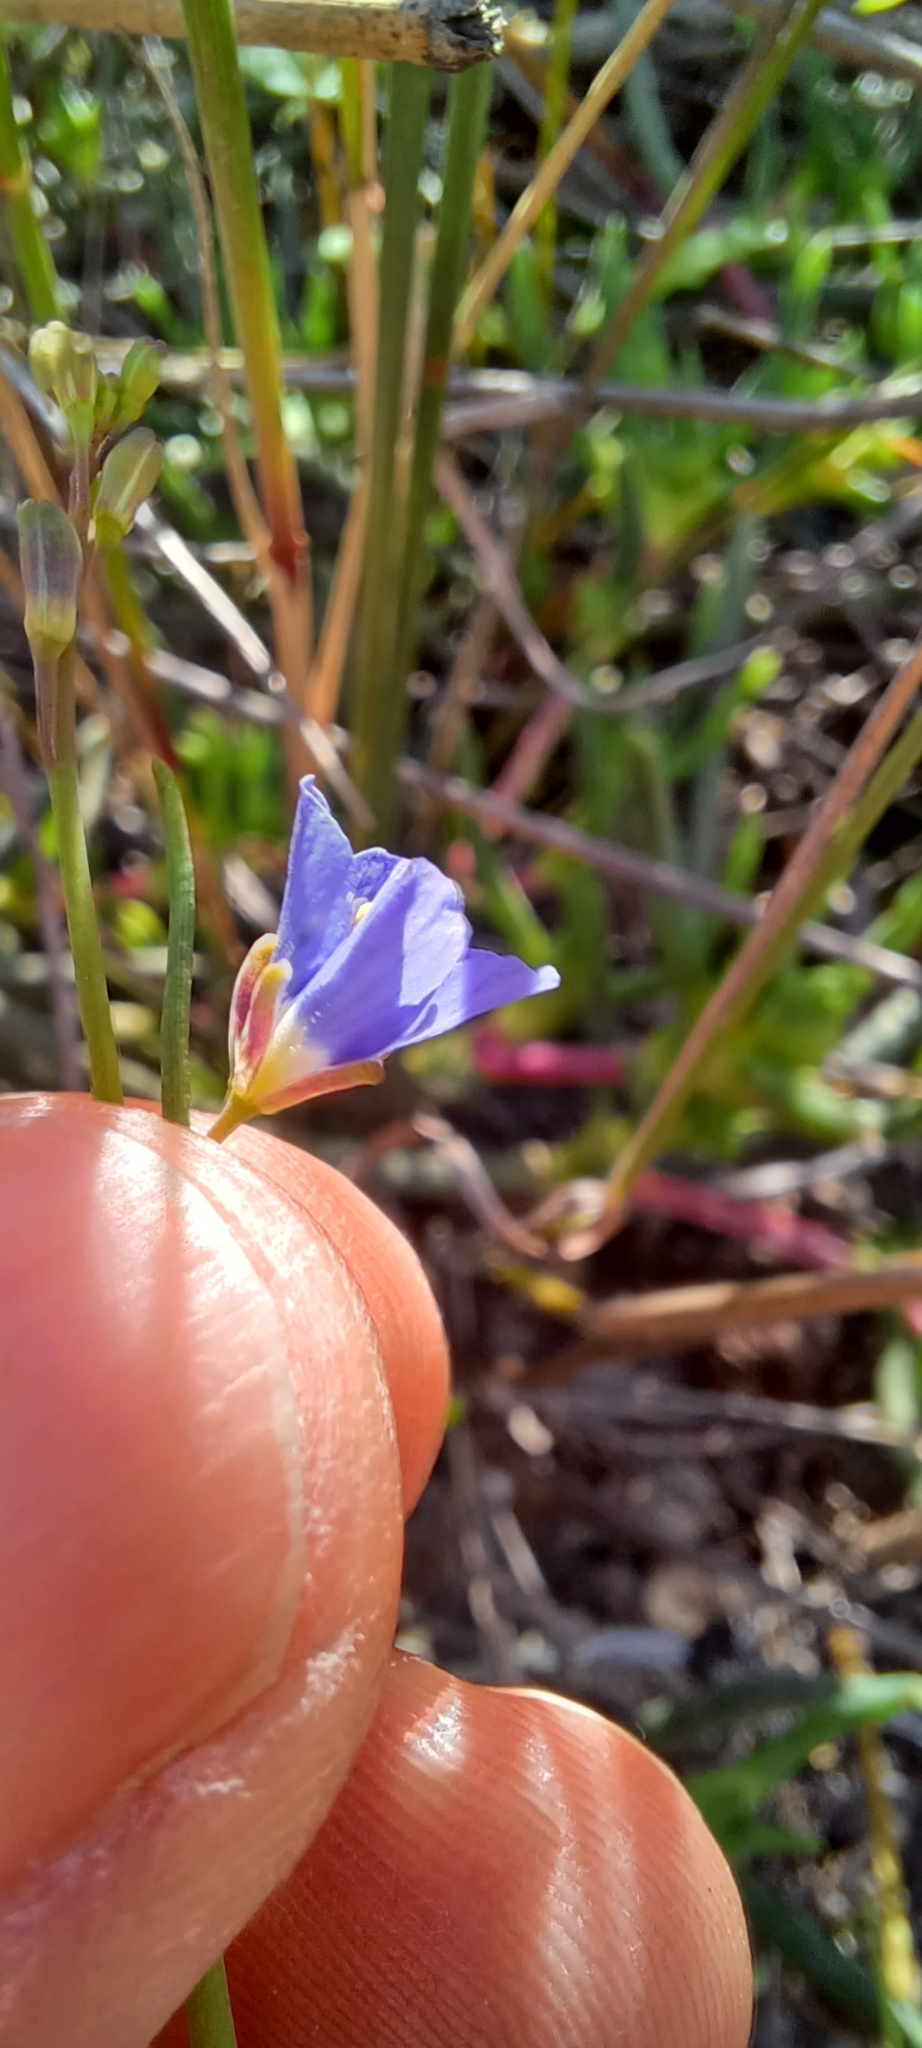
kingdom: Plantae
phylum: Tracheophyta
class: Magnoliopsida
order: Brassicales
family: Brassicaceae
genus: Heliophila
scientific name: Heliophila bulbostyla
